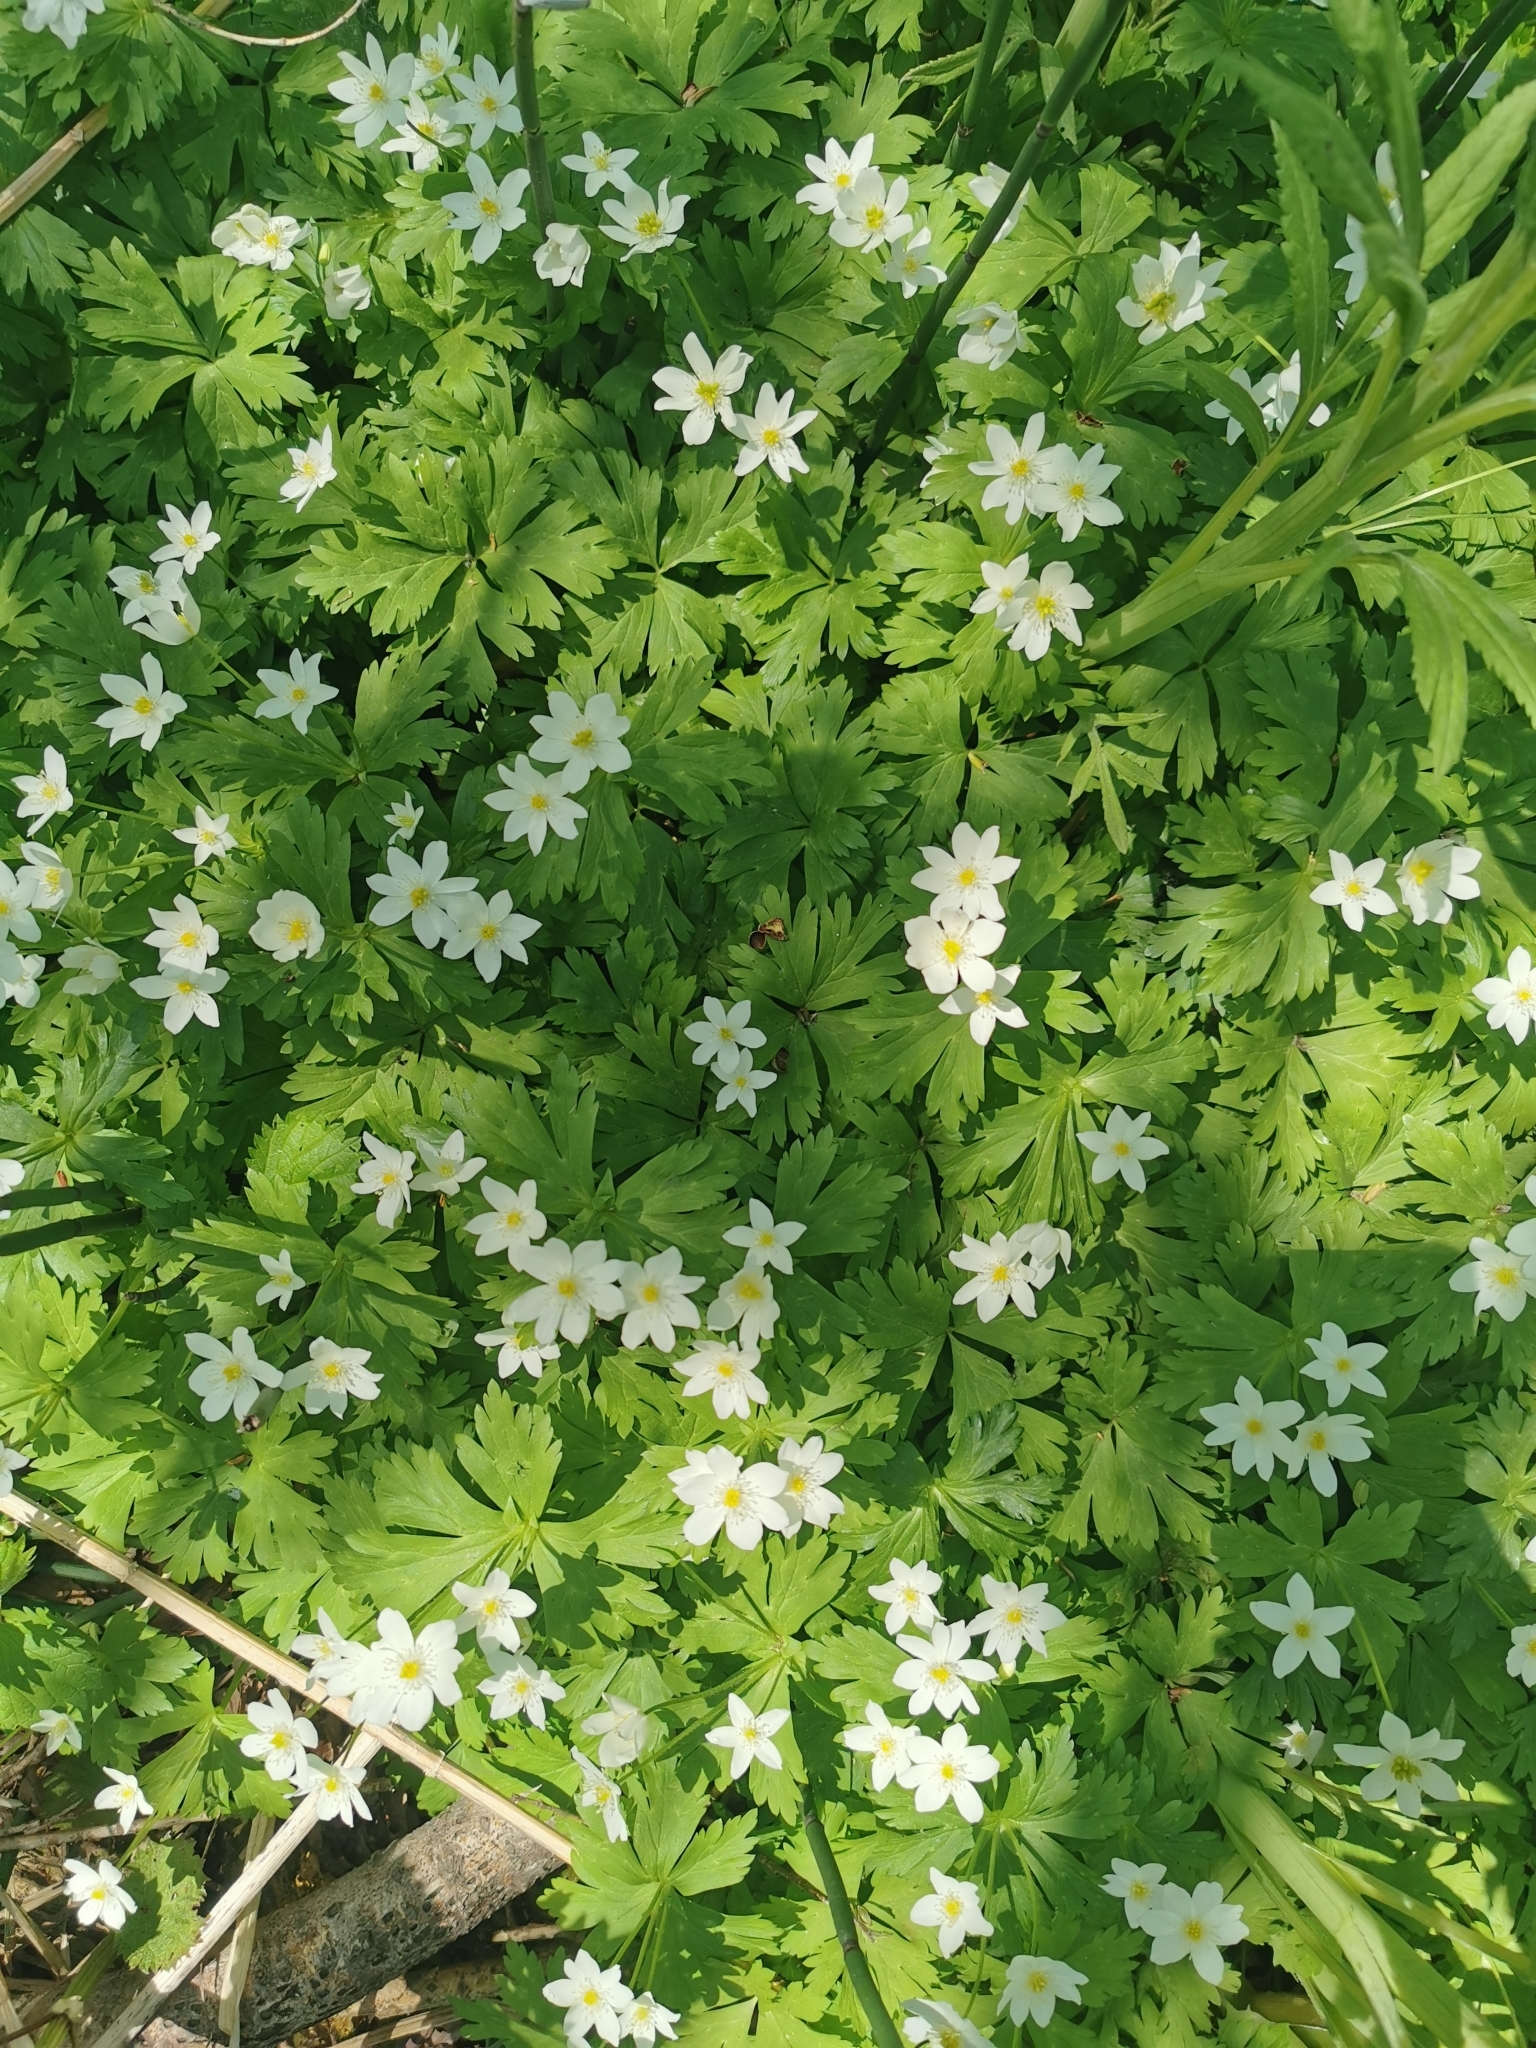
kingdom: Plantae
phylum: Tracheophyta
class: Magnoliopsida
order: Ranunculales
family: Ranunculaceae
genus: Anemonastrum
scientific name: Anemonastrum flaccidum
